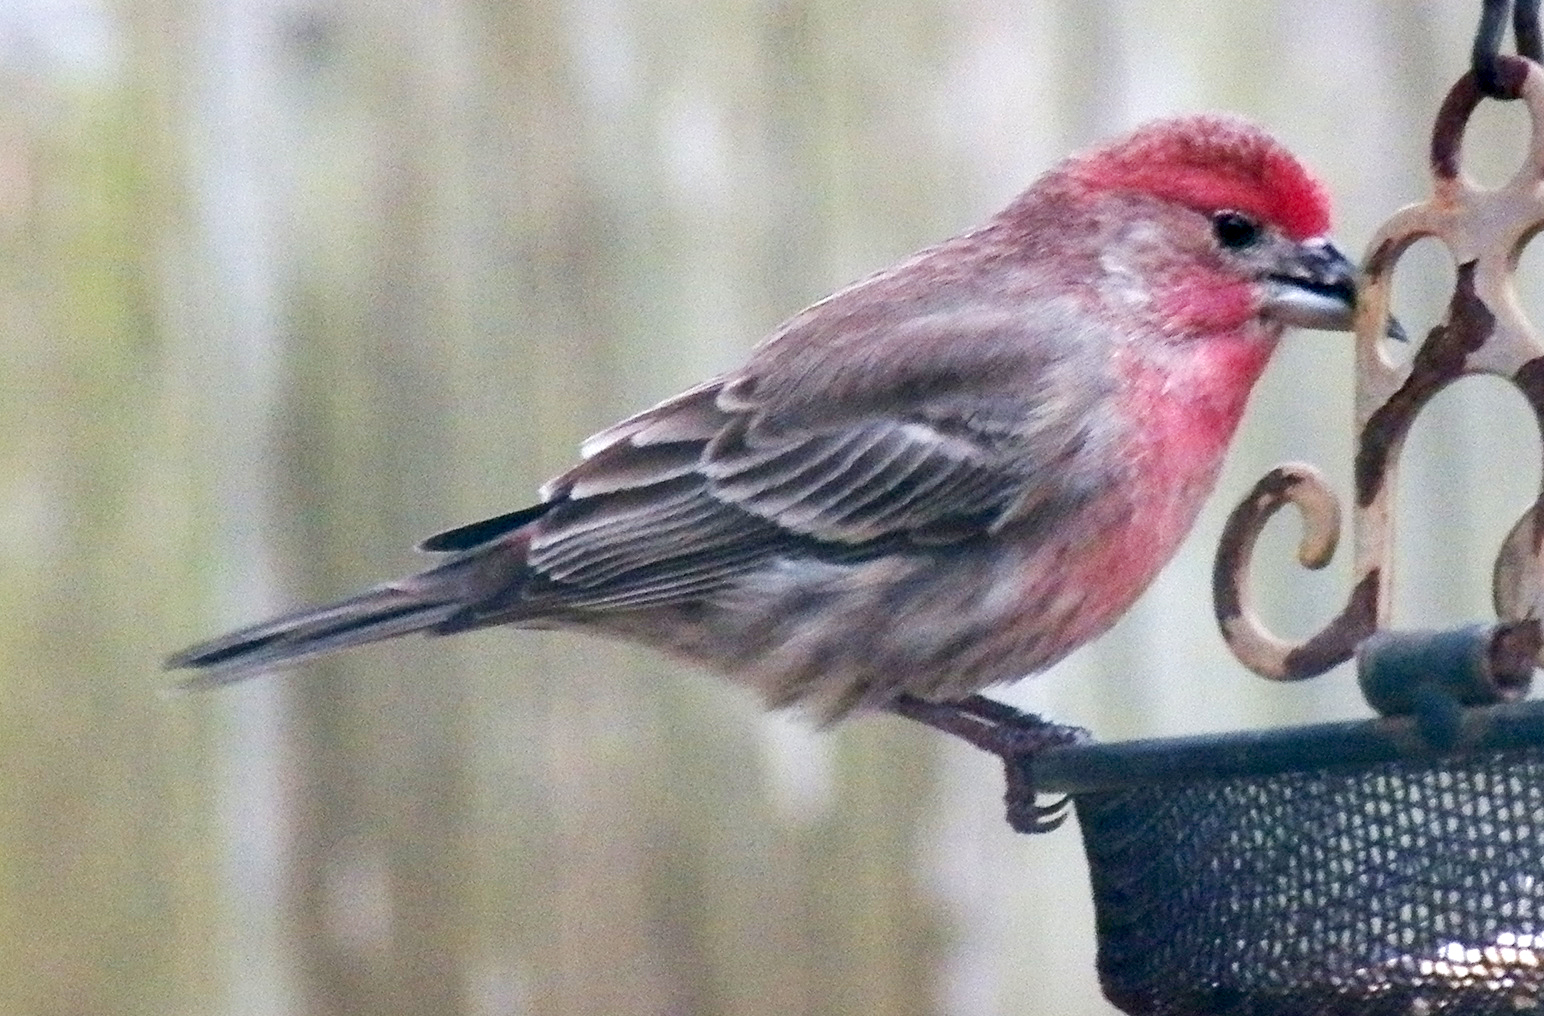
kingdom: Animalia
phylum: Chordata
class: Aves
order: Passeriformes
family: Fringillidae
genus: Haemorhous
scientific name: Haemorhous mexicanus
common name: House finch
